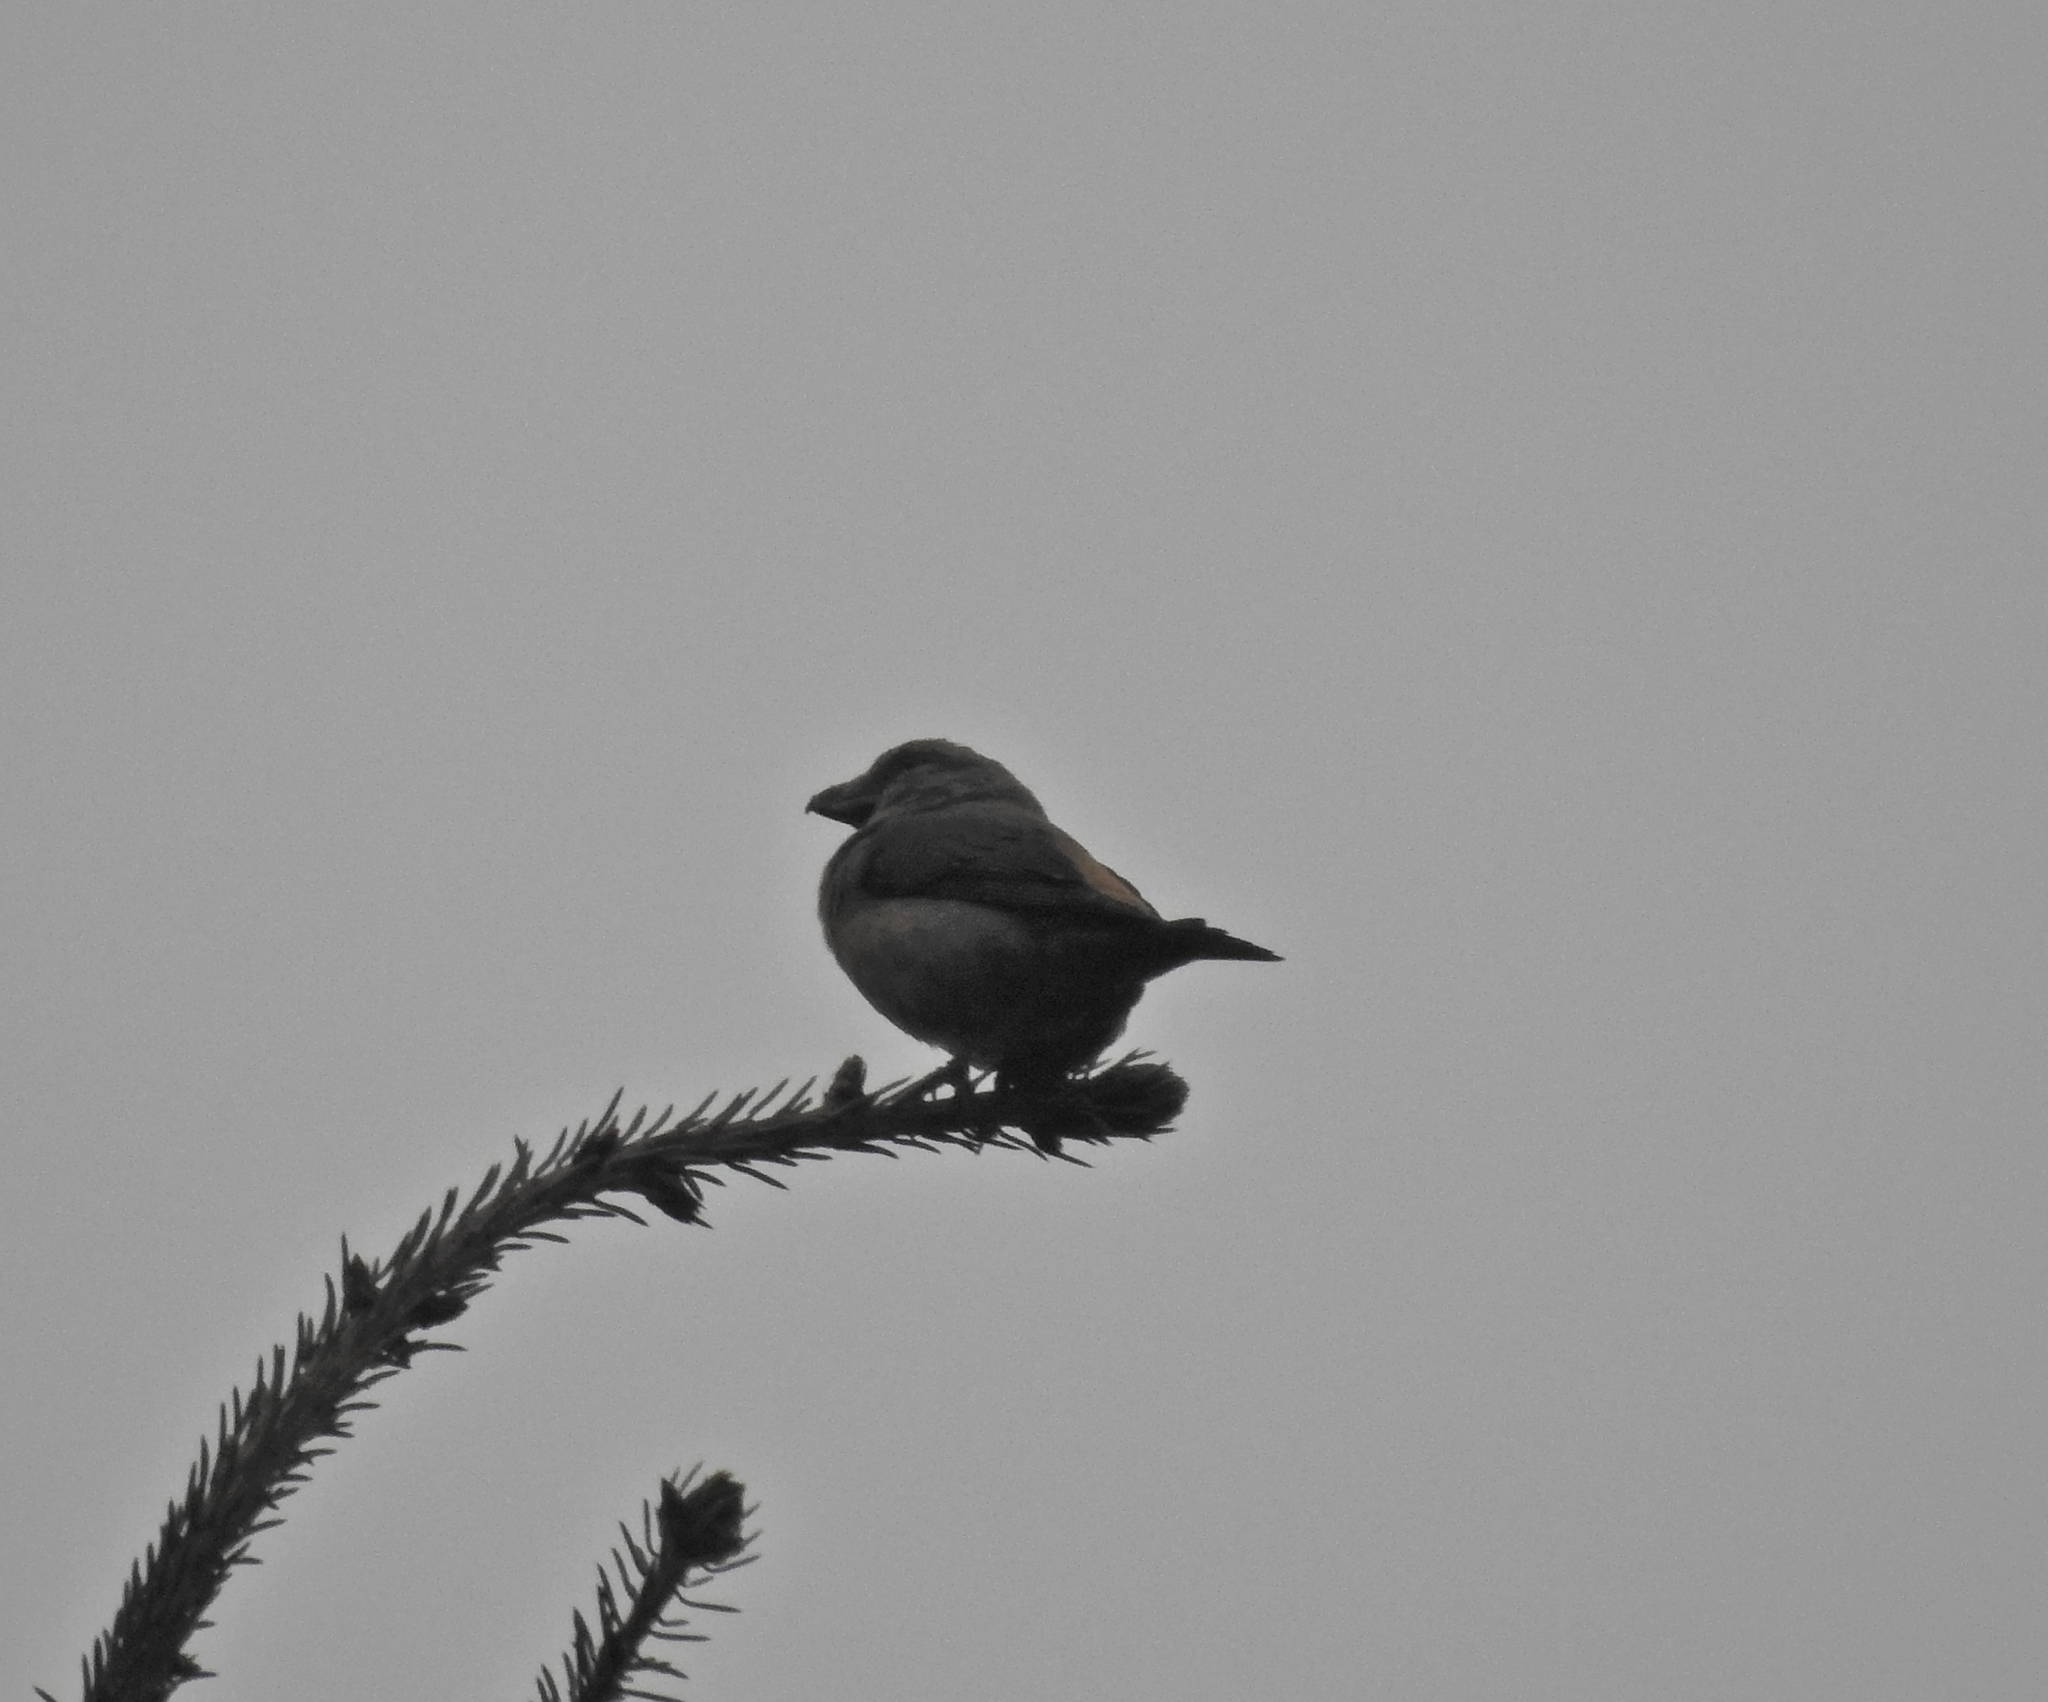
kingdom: Animalia
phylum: Chordata
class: Aves
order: Passeriformes
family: Fringillidae
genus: Loxia
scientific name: Loxia curvirostra
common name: Red crossbill
